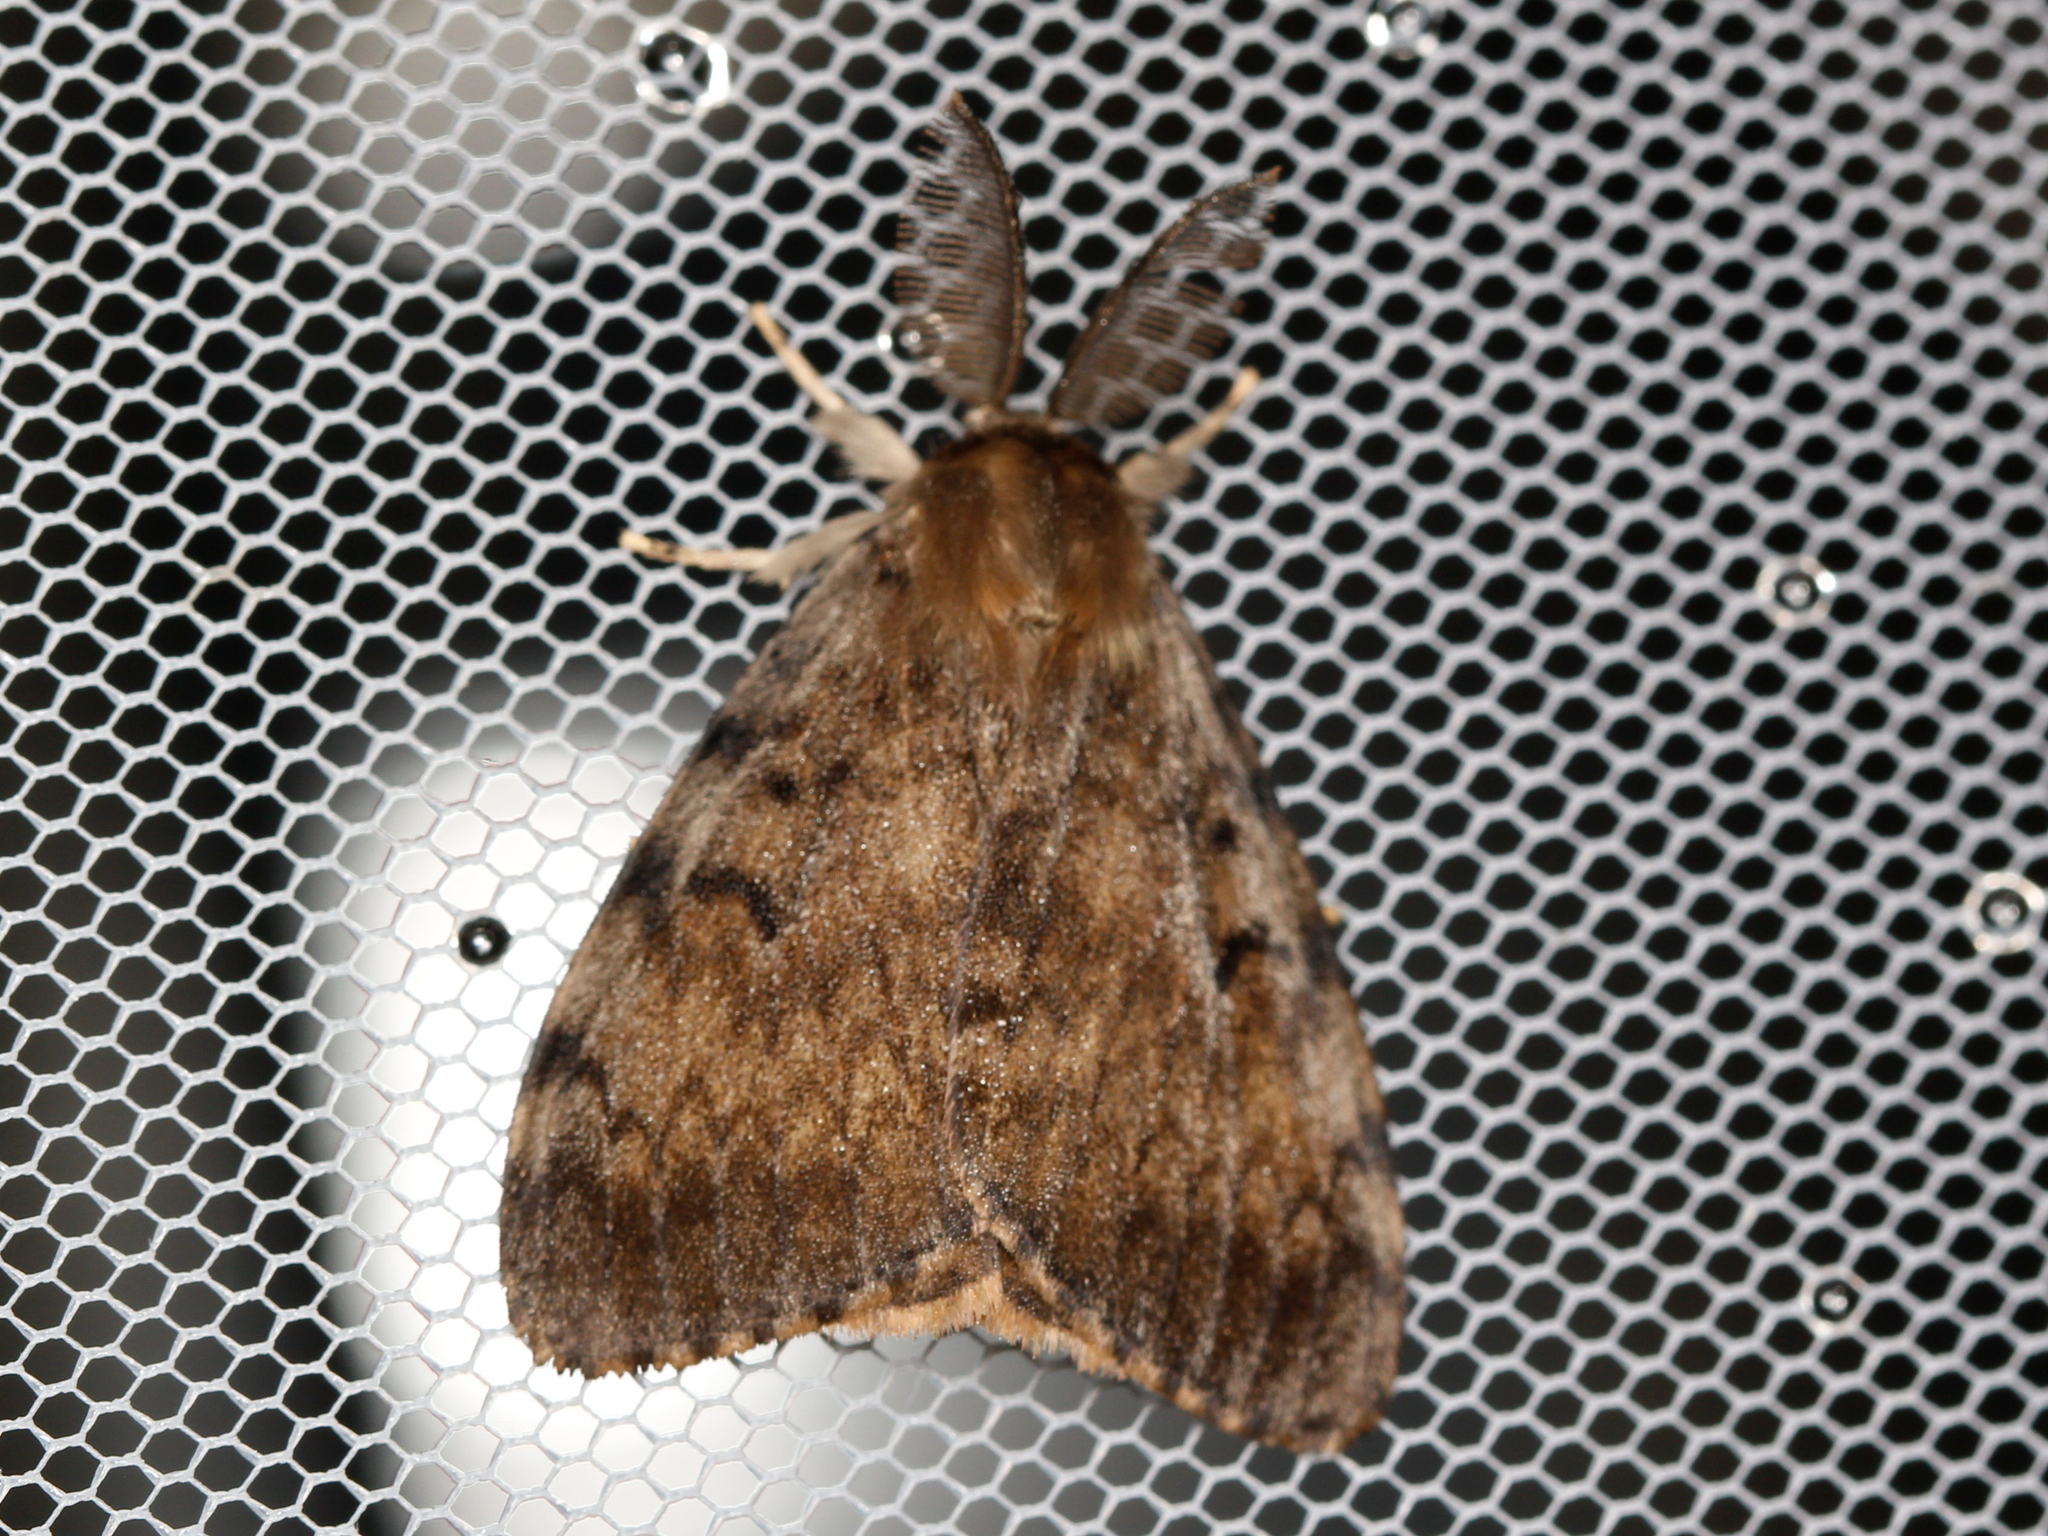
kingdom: Animalia
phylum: Arthropoda
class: Insecta
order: Lepidoptera
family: Erebidae
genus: Lymantria
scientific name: Lymantria dispar
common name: Gypsy moth
